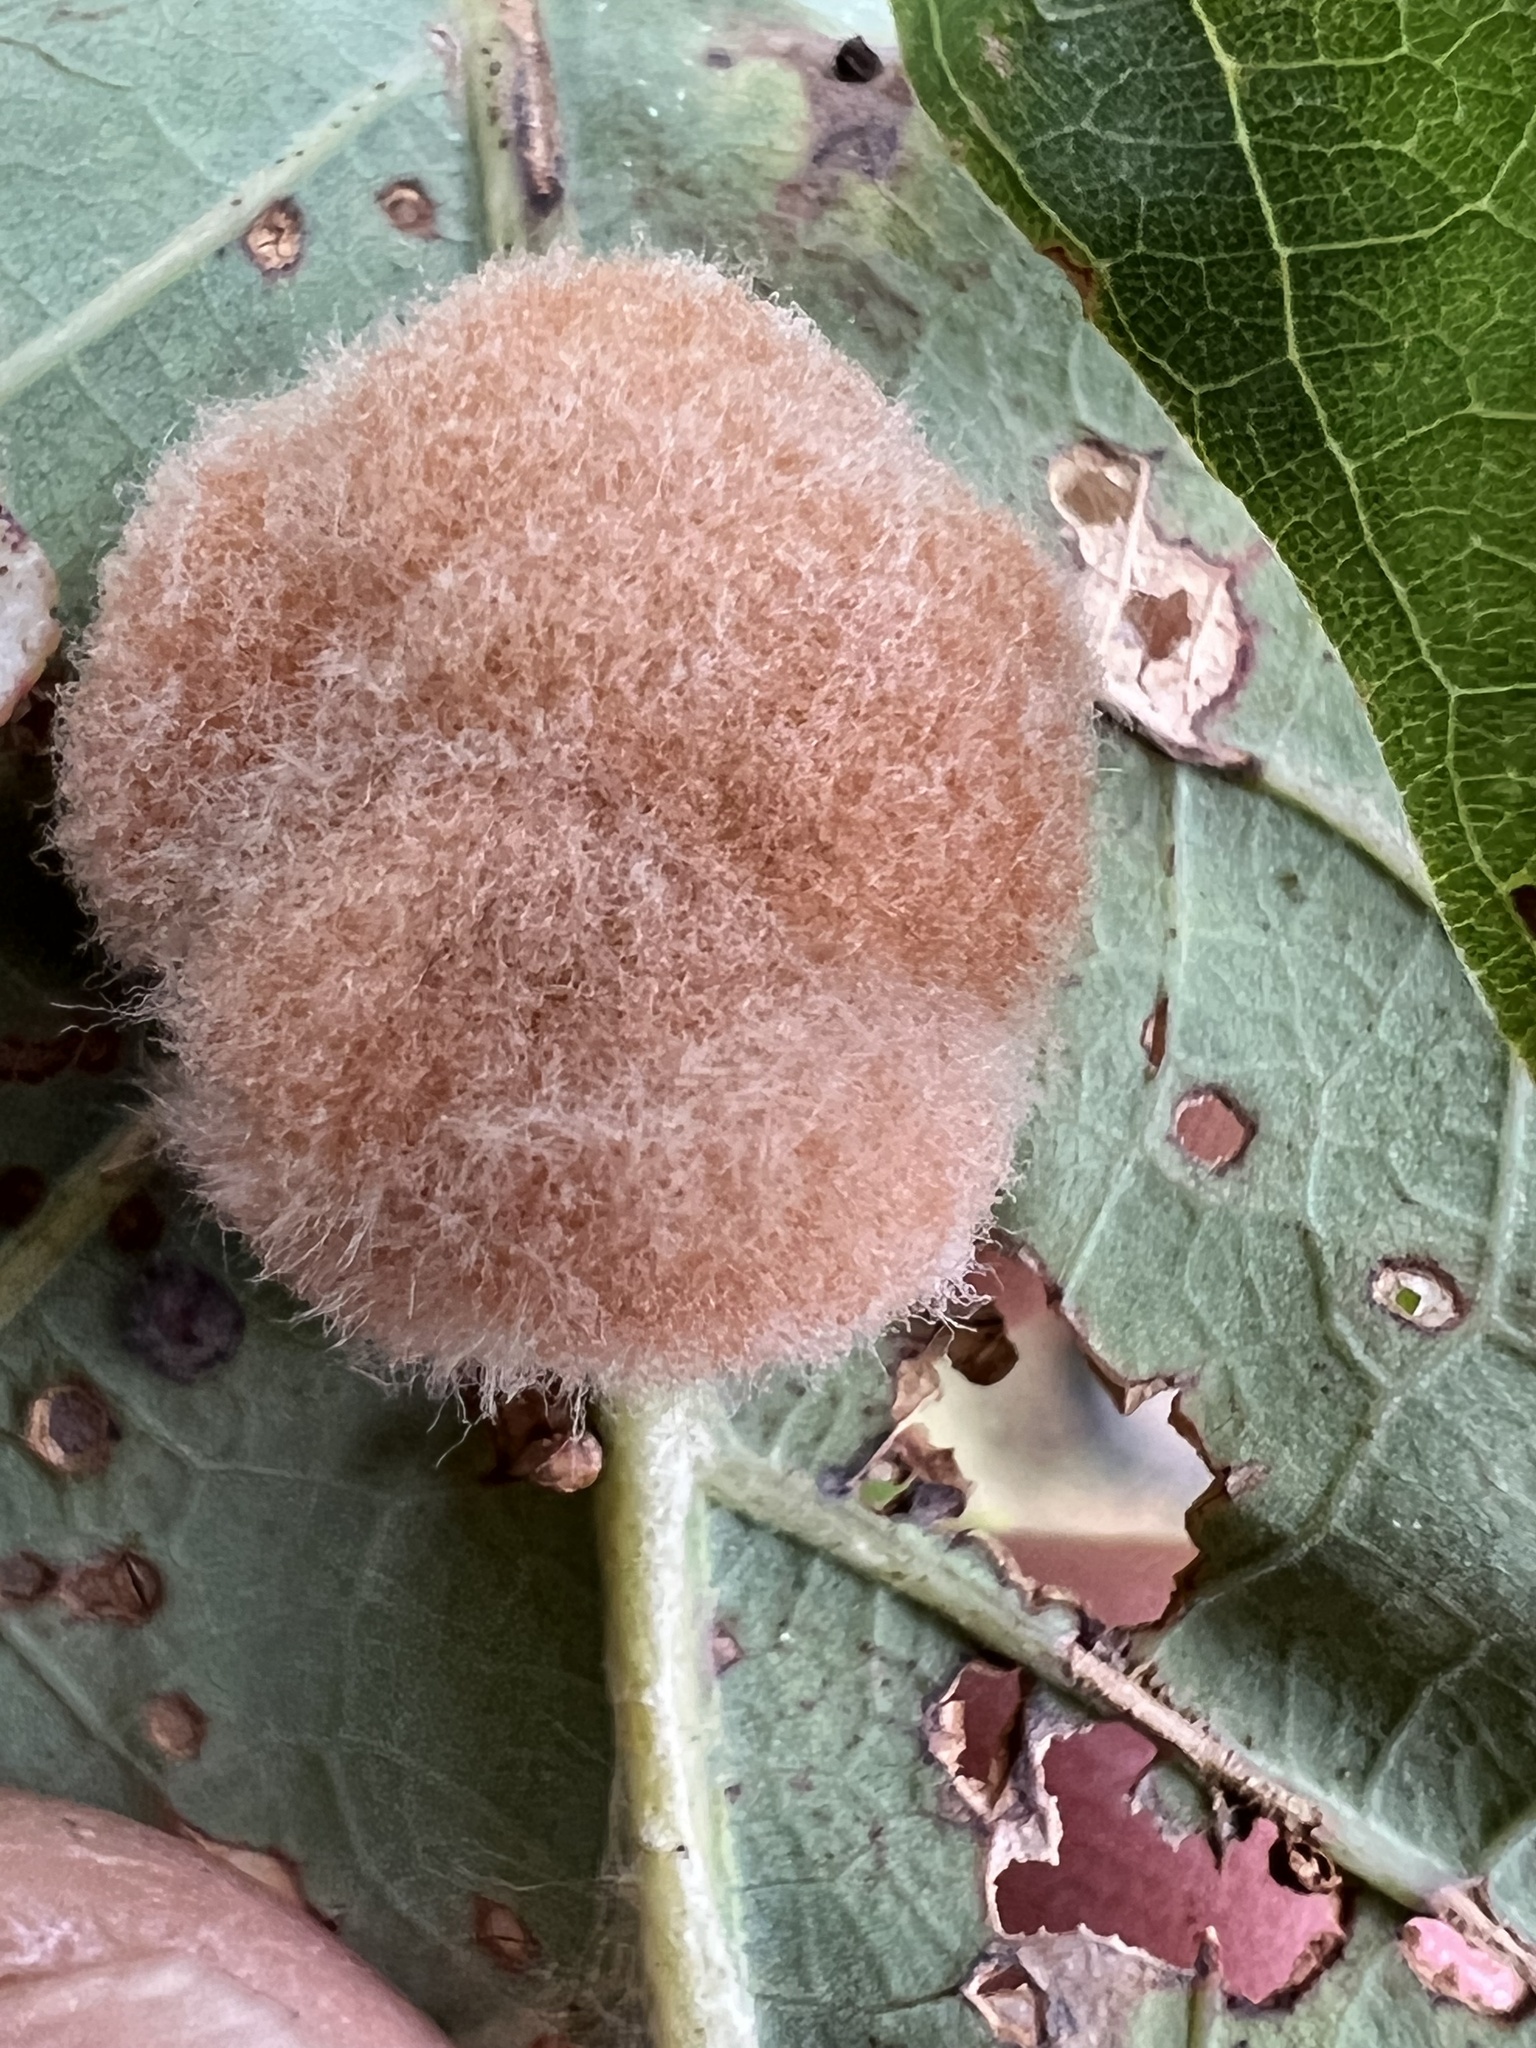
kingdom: Animalia
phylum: Arthropoda
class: Insecta
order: Hymenoptera
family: Cynipidae
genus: Andricus
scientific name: Andricus quercusflocci
